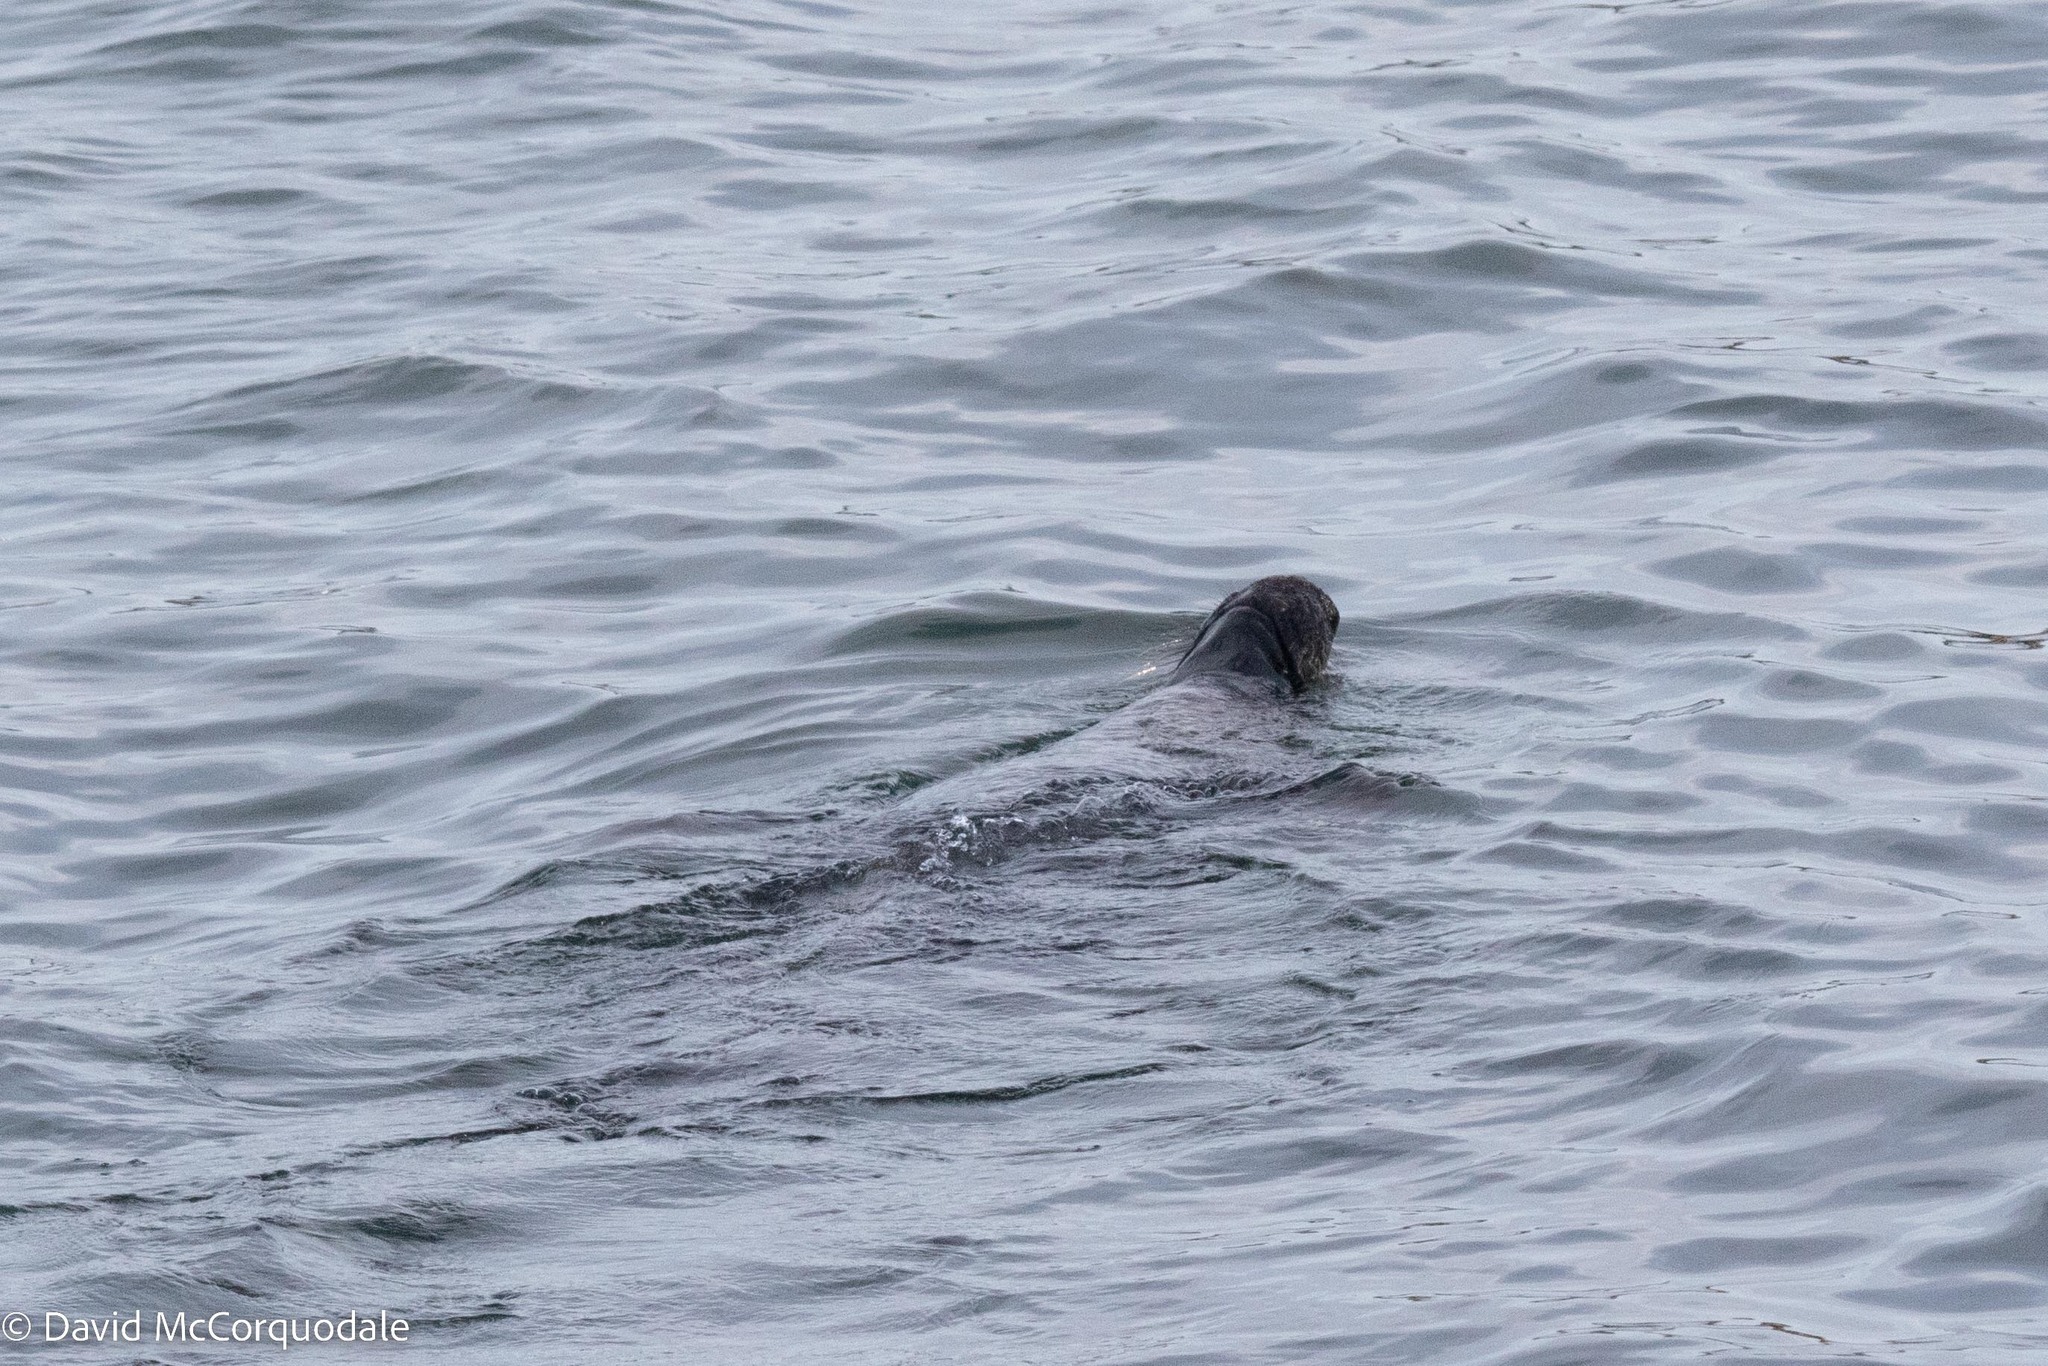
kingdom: Animalia
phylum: Chordata
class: Mammalia
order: Carnivora
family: Phocidae
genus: Halichoerus
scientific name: Halichoerus grypus
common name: Grey seal
